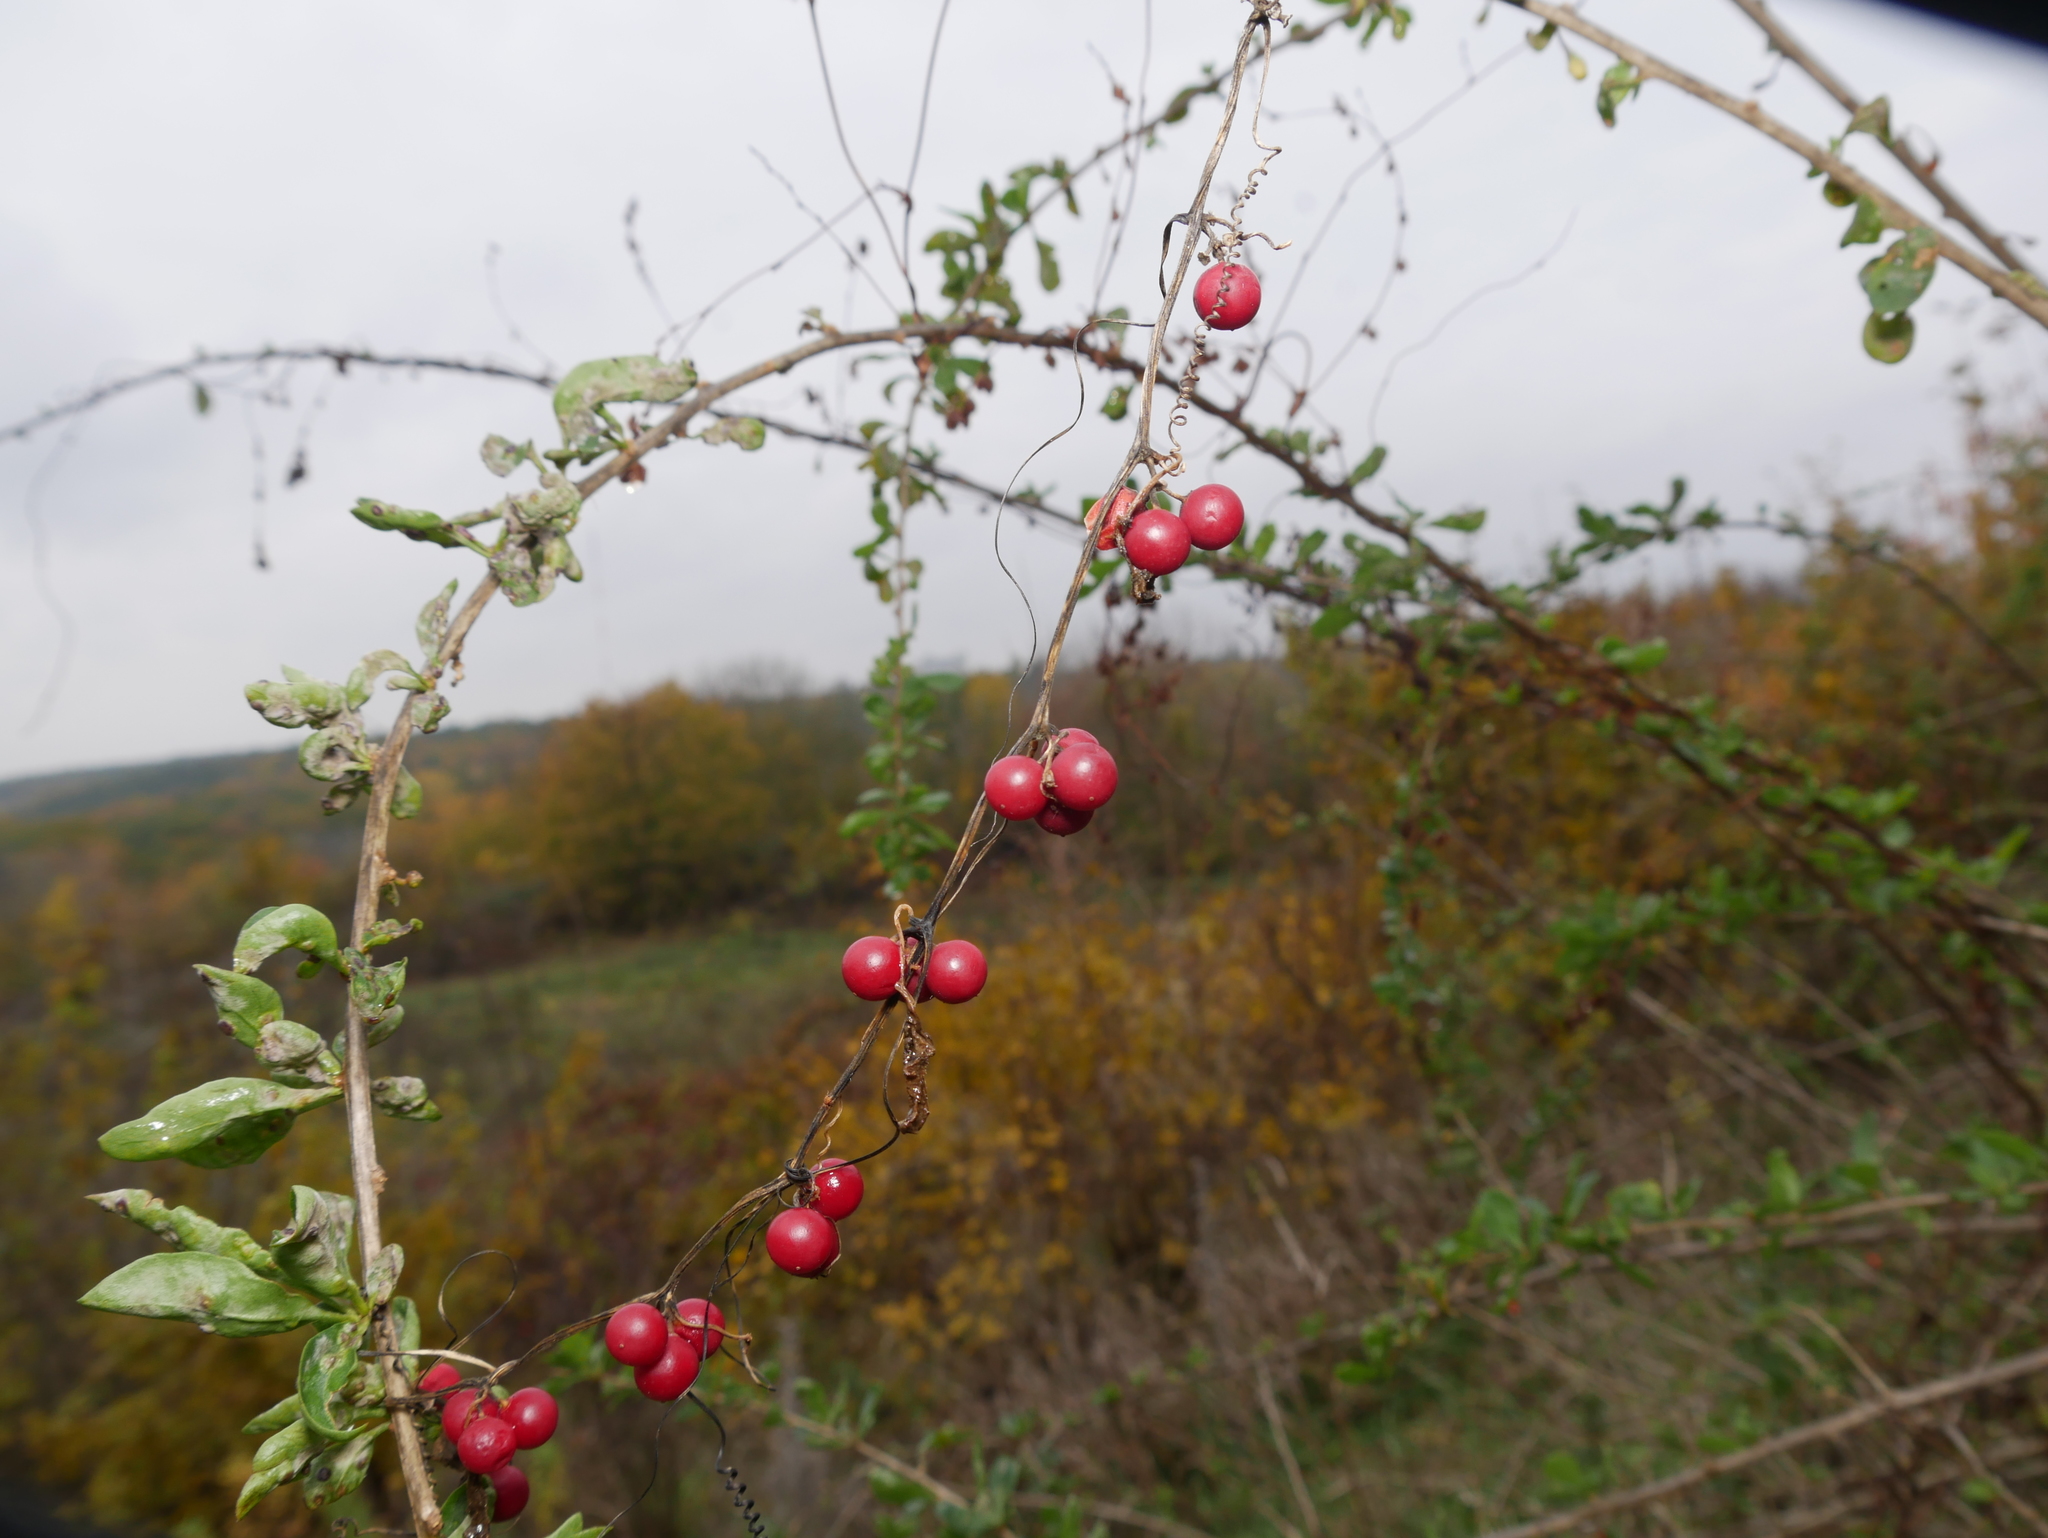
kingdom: Plantae
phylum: Tracheophyta
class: Magnoliopsida
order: Cucurbitales
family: Cucurbitaceae
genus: Bryonia
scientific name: Bryonia dioica
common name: White bryony
